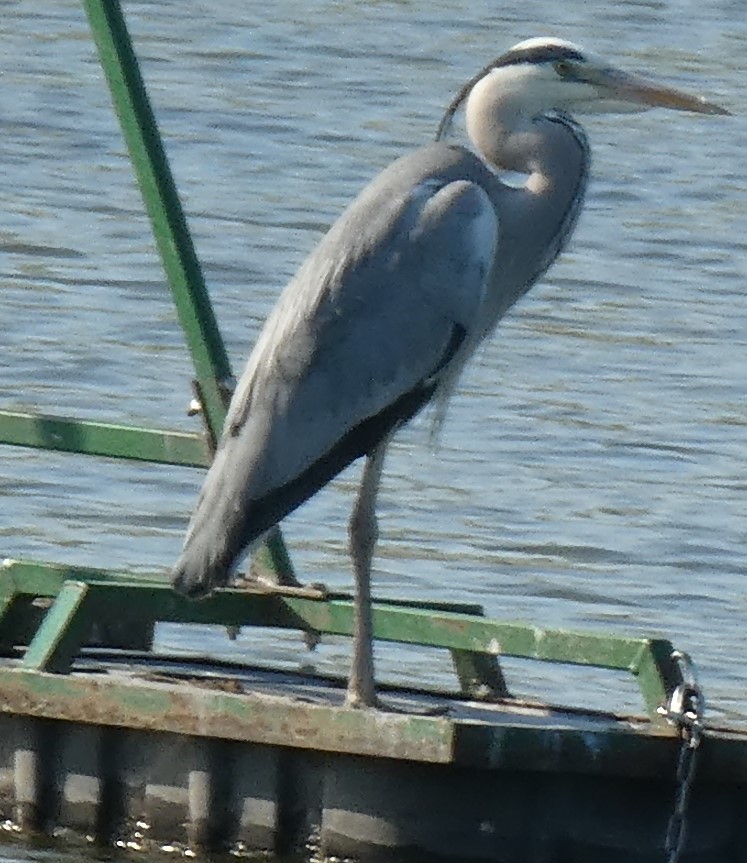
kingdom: Animalia
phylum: Chordata
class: Aves
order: Pelecaniformes
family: Ardeidae
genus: Ardea
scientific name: Ardea cinerea
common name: Grey heron
